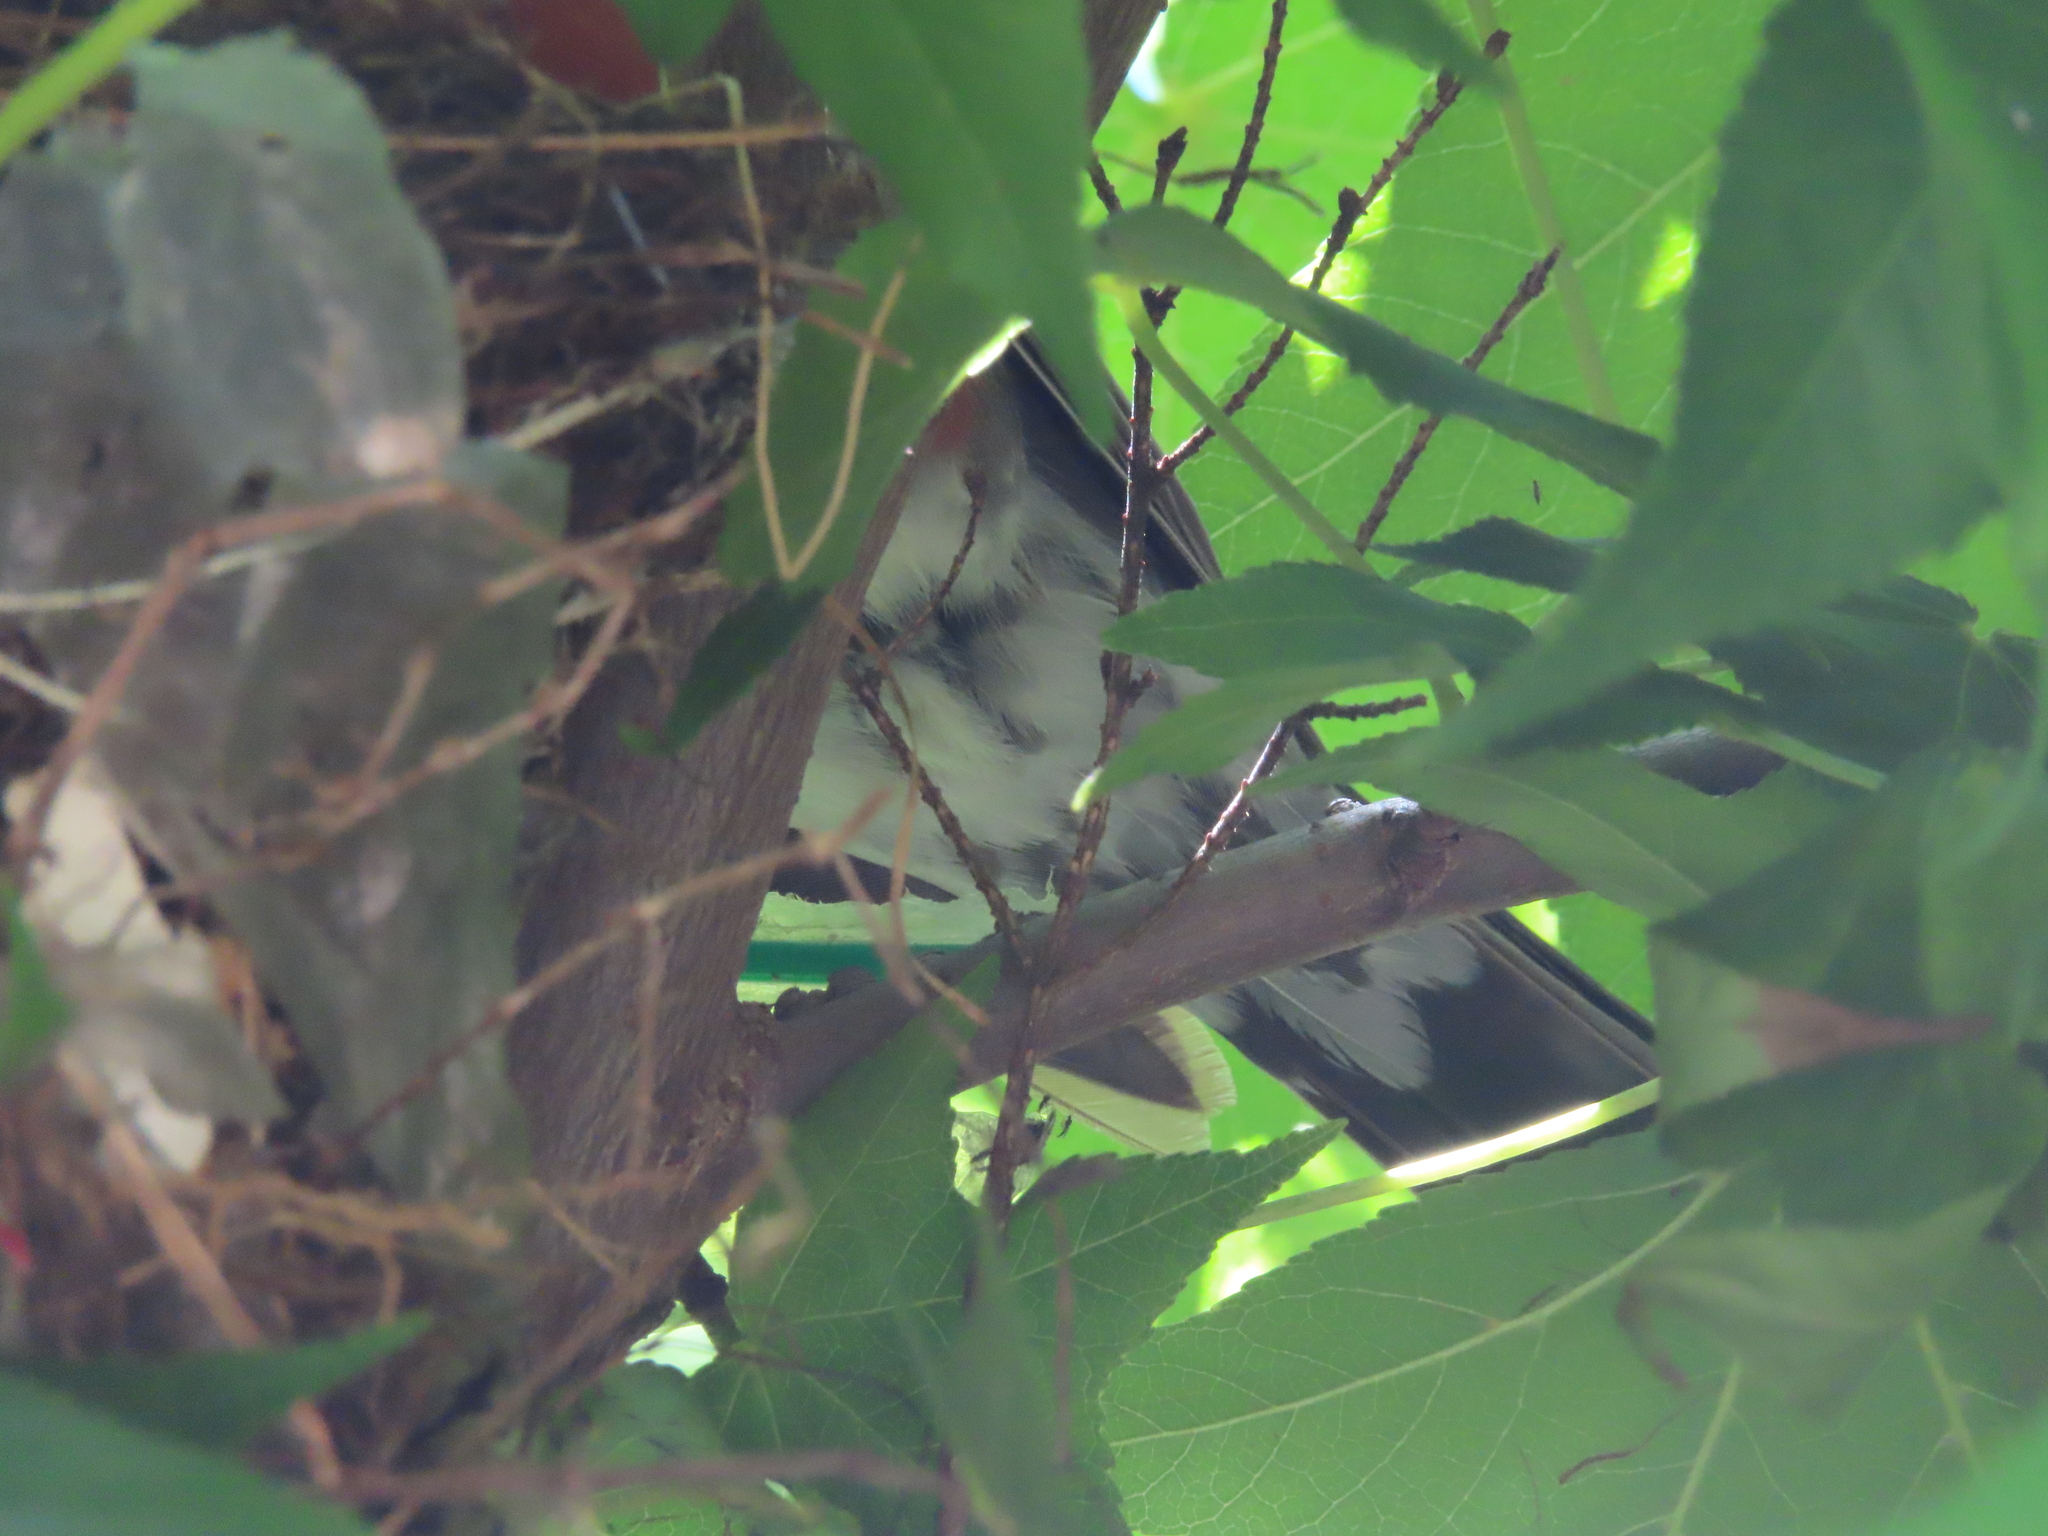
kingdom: Animalia
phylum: Chordata
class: Aves
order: Passeriformes
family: Turdidae
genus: Turdus
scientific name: Turdus migratorius
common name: American robin
